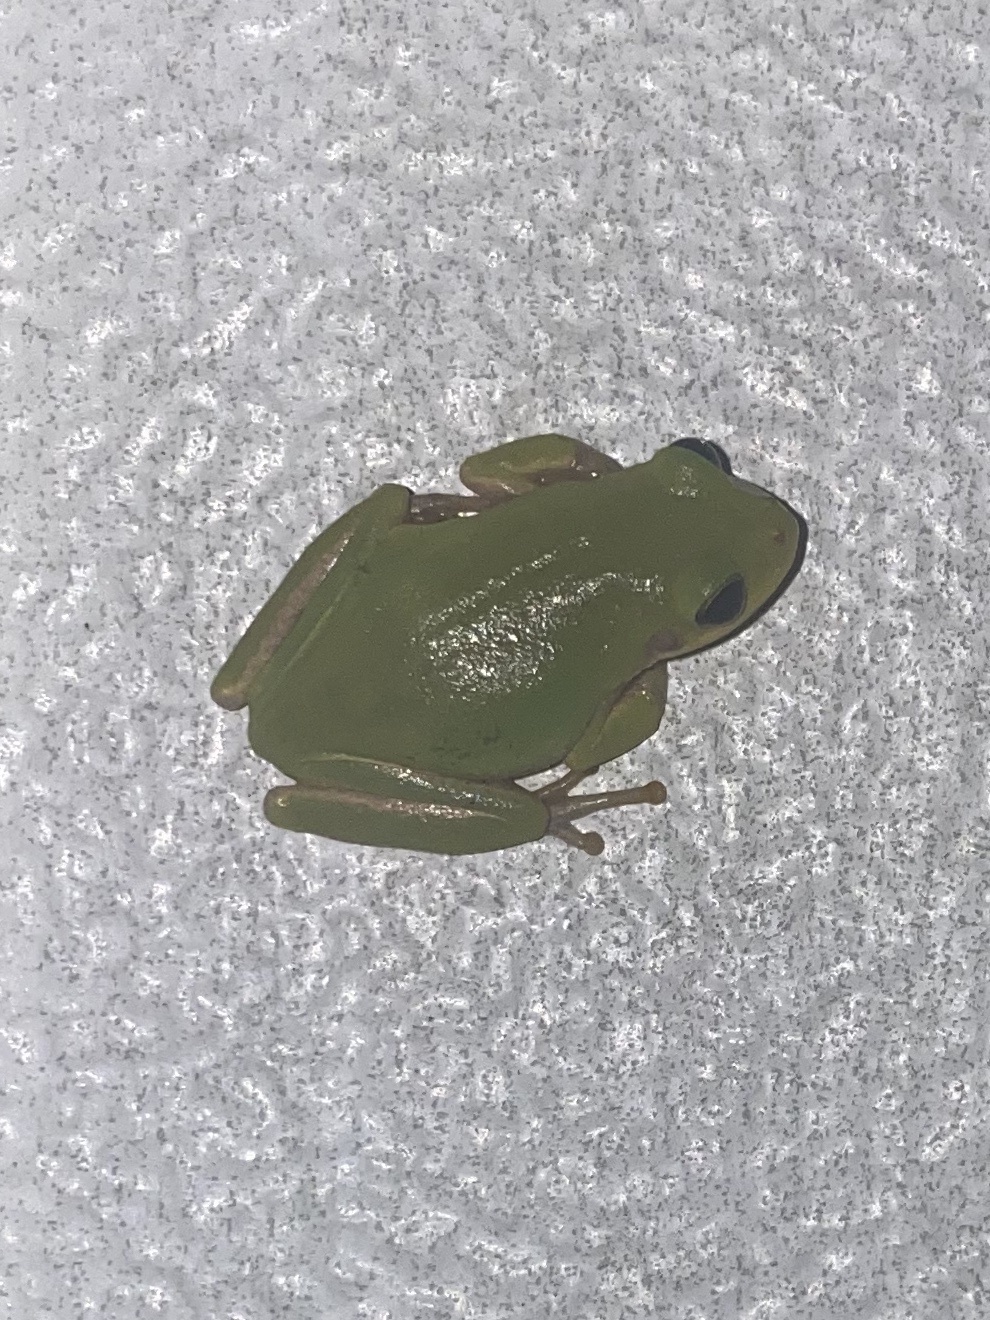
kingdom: Animalia
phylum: Chordata
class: Amphibia
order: Anura
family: Hylidae
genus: Dryophytes
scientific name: Dryophytes squirellus
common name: Squirrel treefrog
